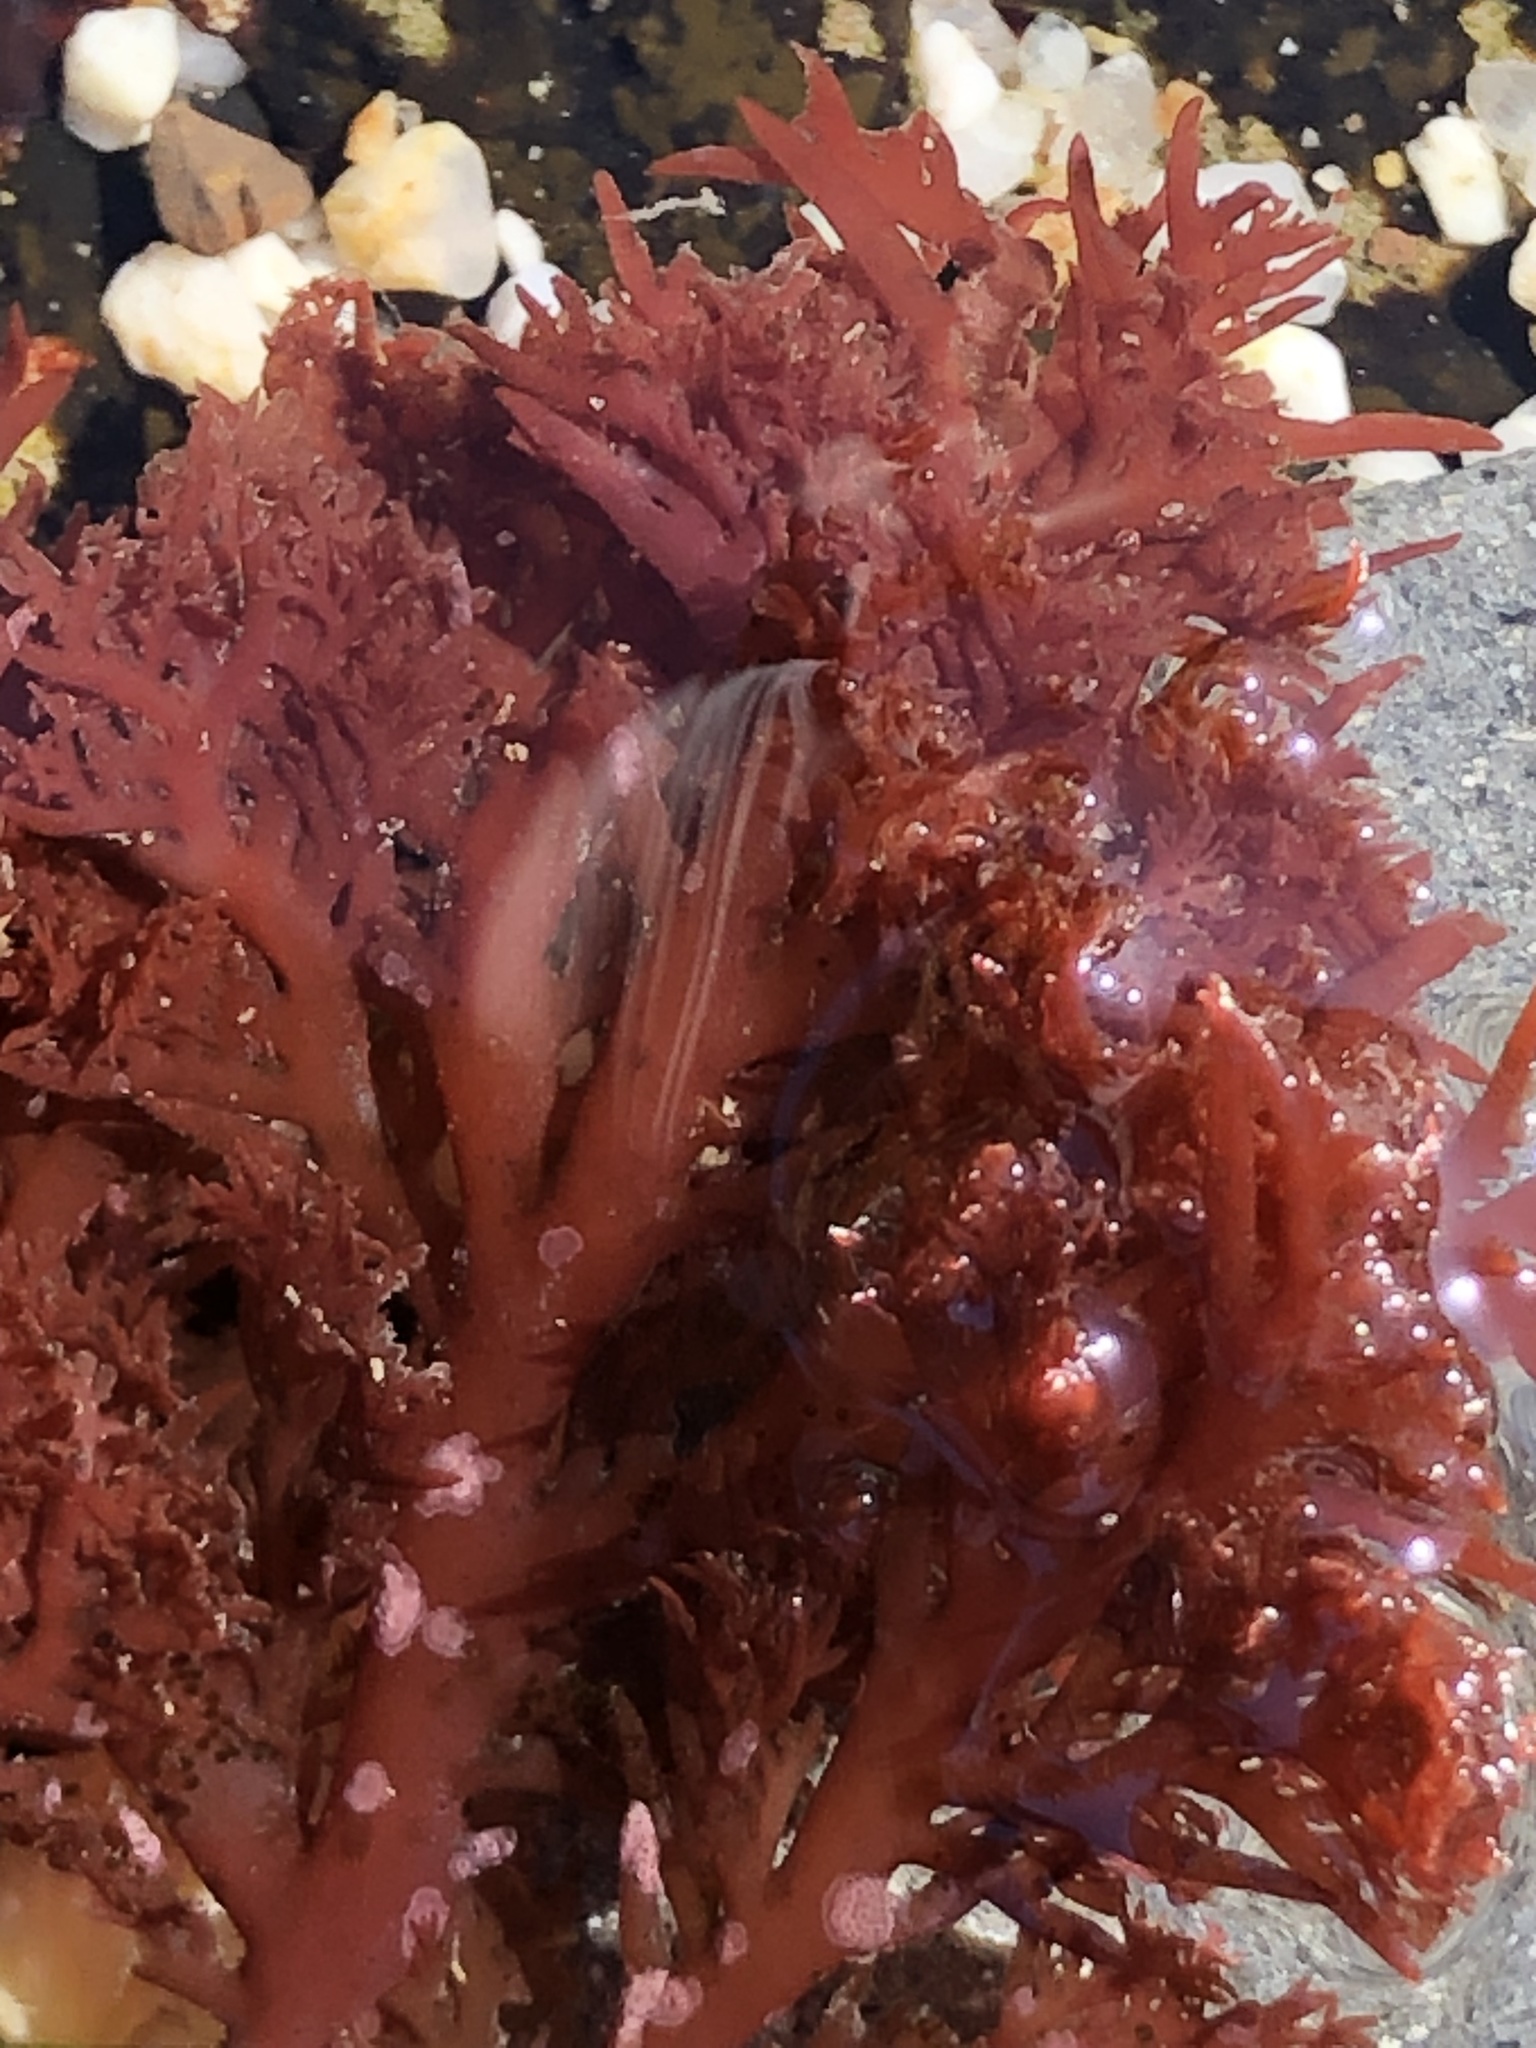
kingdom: Plantae
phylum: Rhodophyta
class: Florideophyceae
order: Plocamiales
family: Plocamiaceae
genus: Plocamium
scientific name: Plocamium cartilagineum
